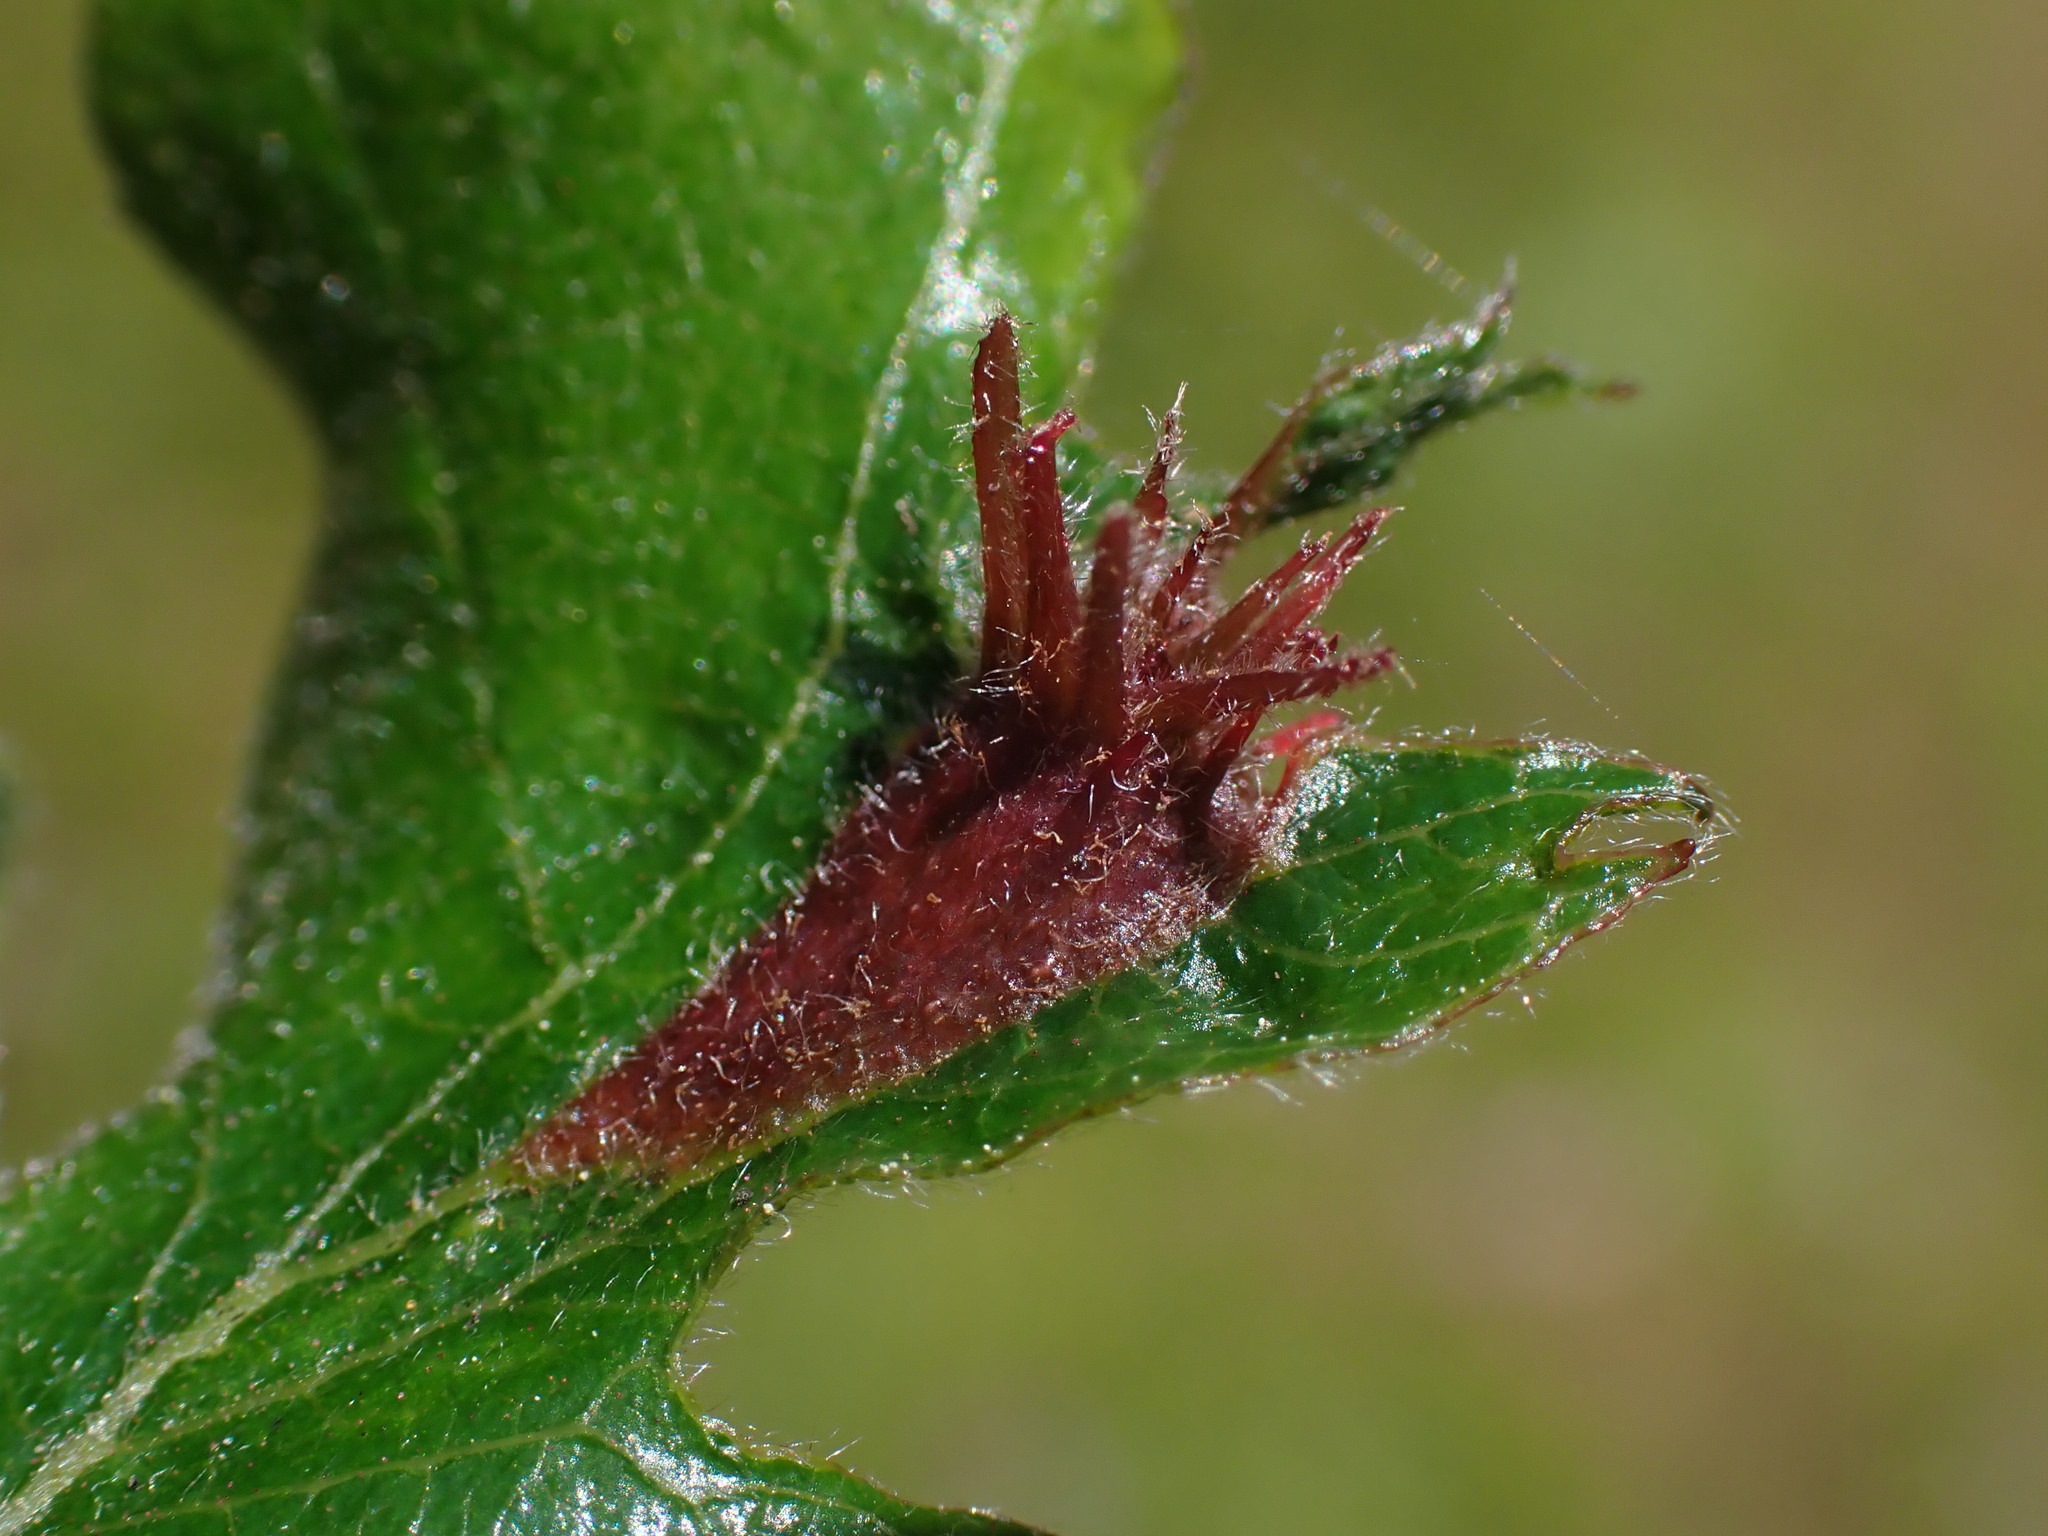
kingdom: Animalia
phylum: Arthropoda
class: Insecta
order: Hymenoptera
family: Cynipidae
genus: Andricus
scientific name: Andricus
